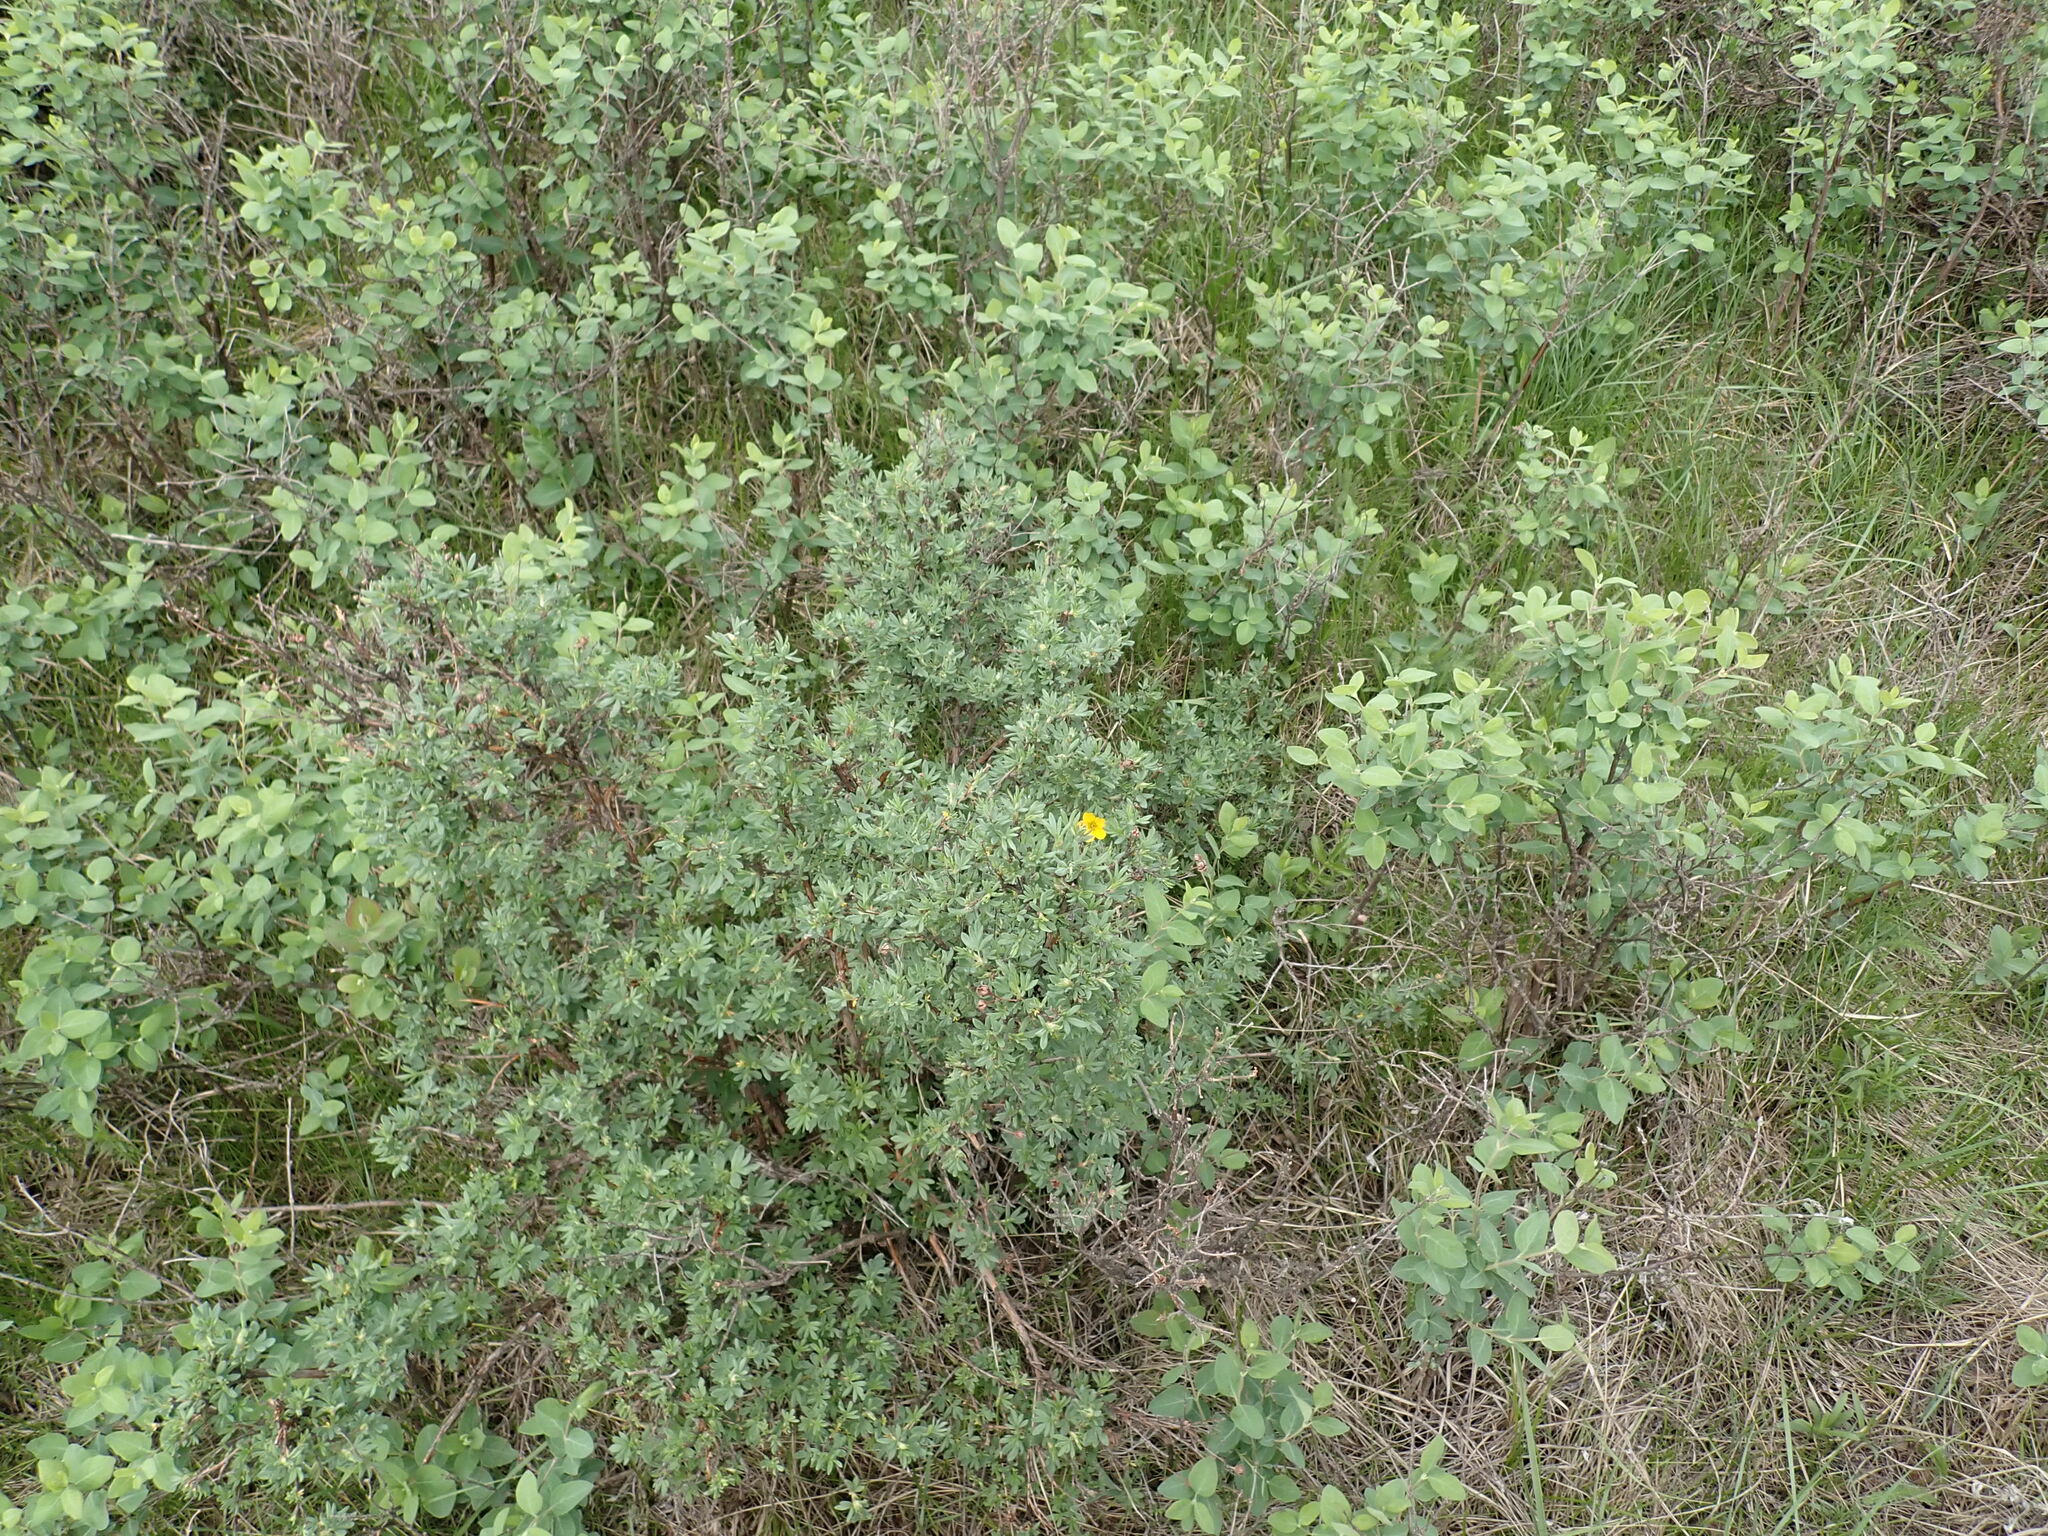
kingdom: Plantae
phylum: Tracheophyta
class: Magnoliopsida
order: Rosales
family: Rosaceae
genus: Dasiphora
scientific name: Dasiphora fruticosa
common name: Shrubby cinquefoil
